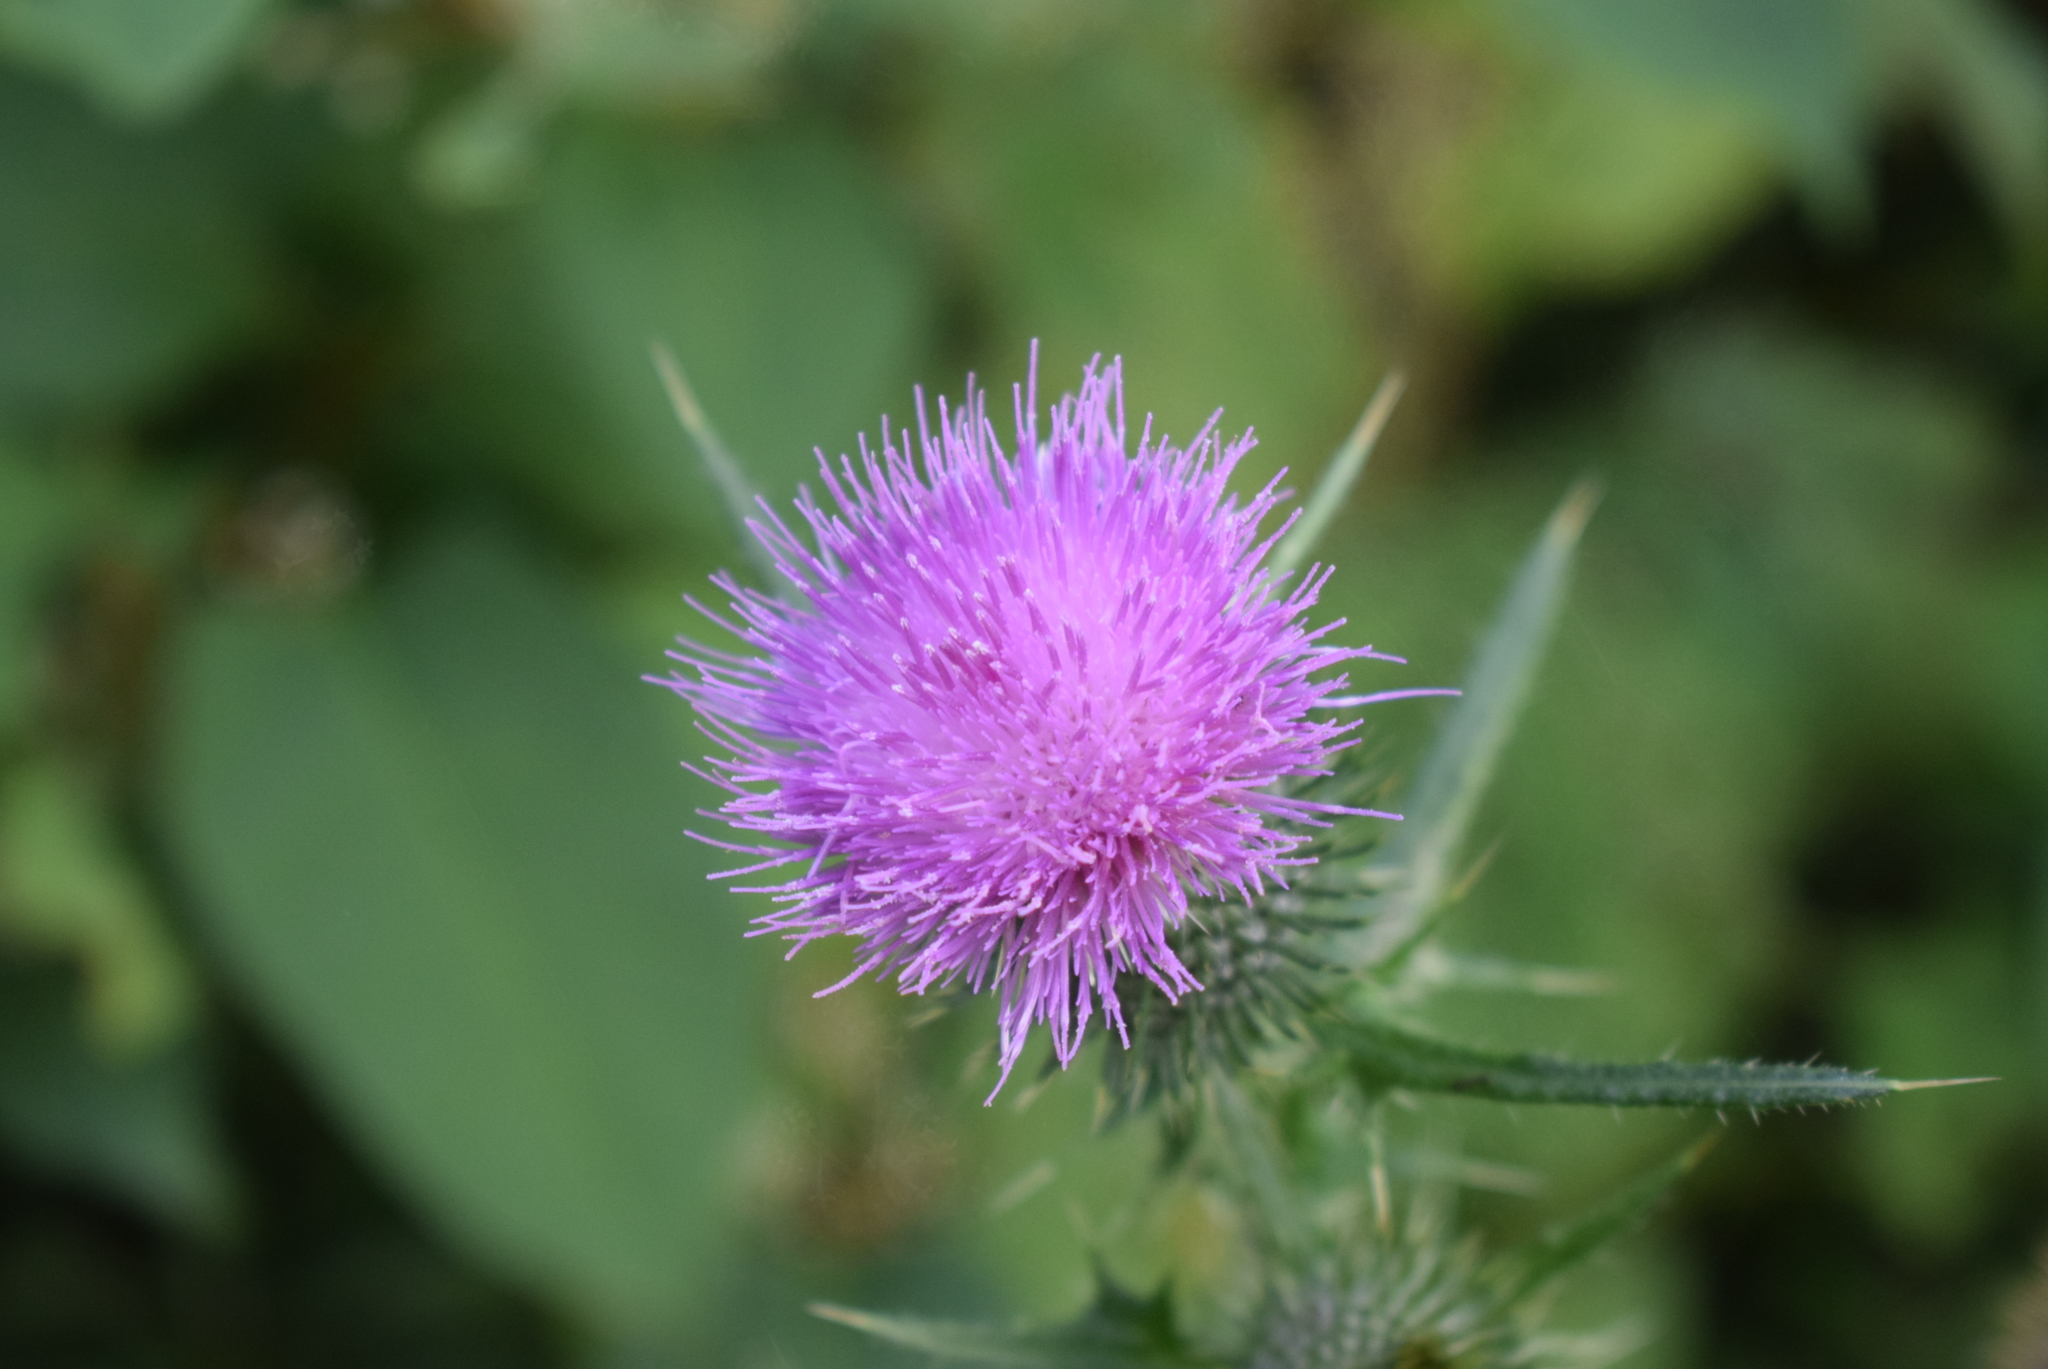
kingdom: Plantae
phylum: Tracheophyta
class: Magnoliopsida
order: Asterales
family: Asteraceae
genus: Cirsium
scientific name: Cirsium vulgare
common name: Bull thistle
